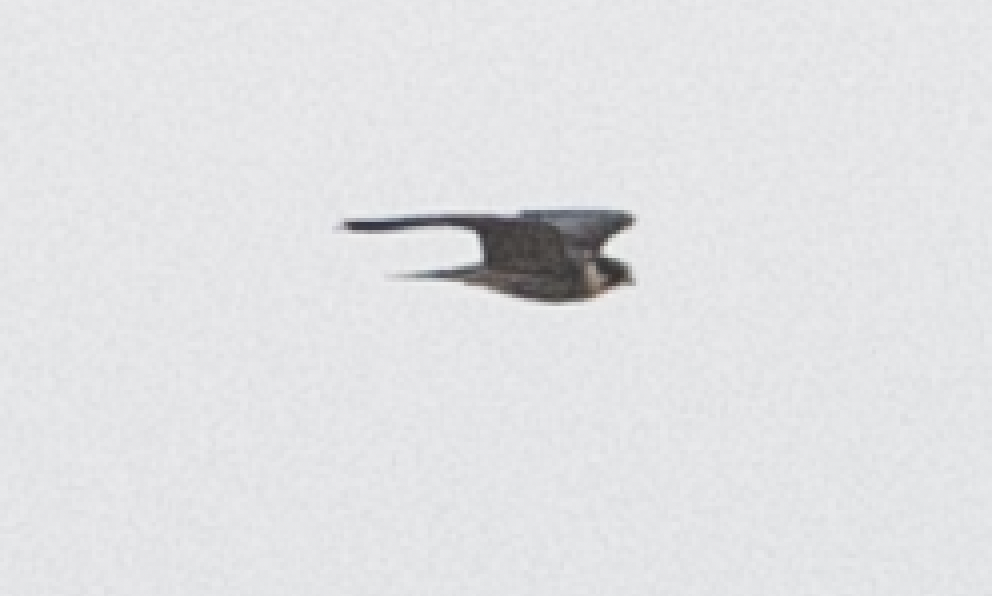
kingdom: Animalia
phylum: Chordata
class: Aves
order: Falconiformes
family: Falconidae
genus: Falco
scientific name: Falco subbuteo
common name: Eurasian hobby
